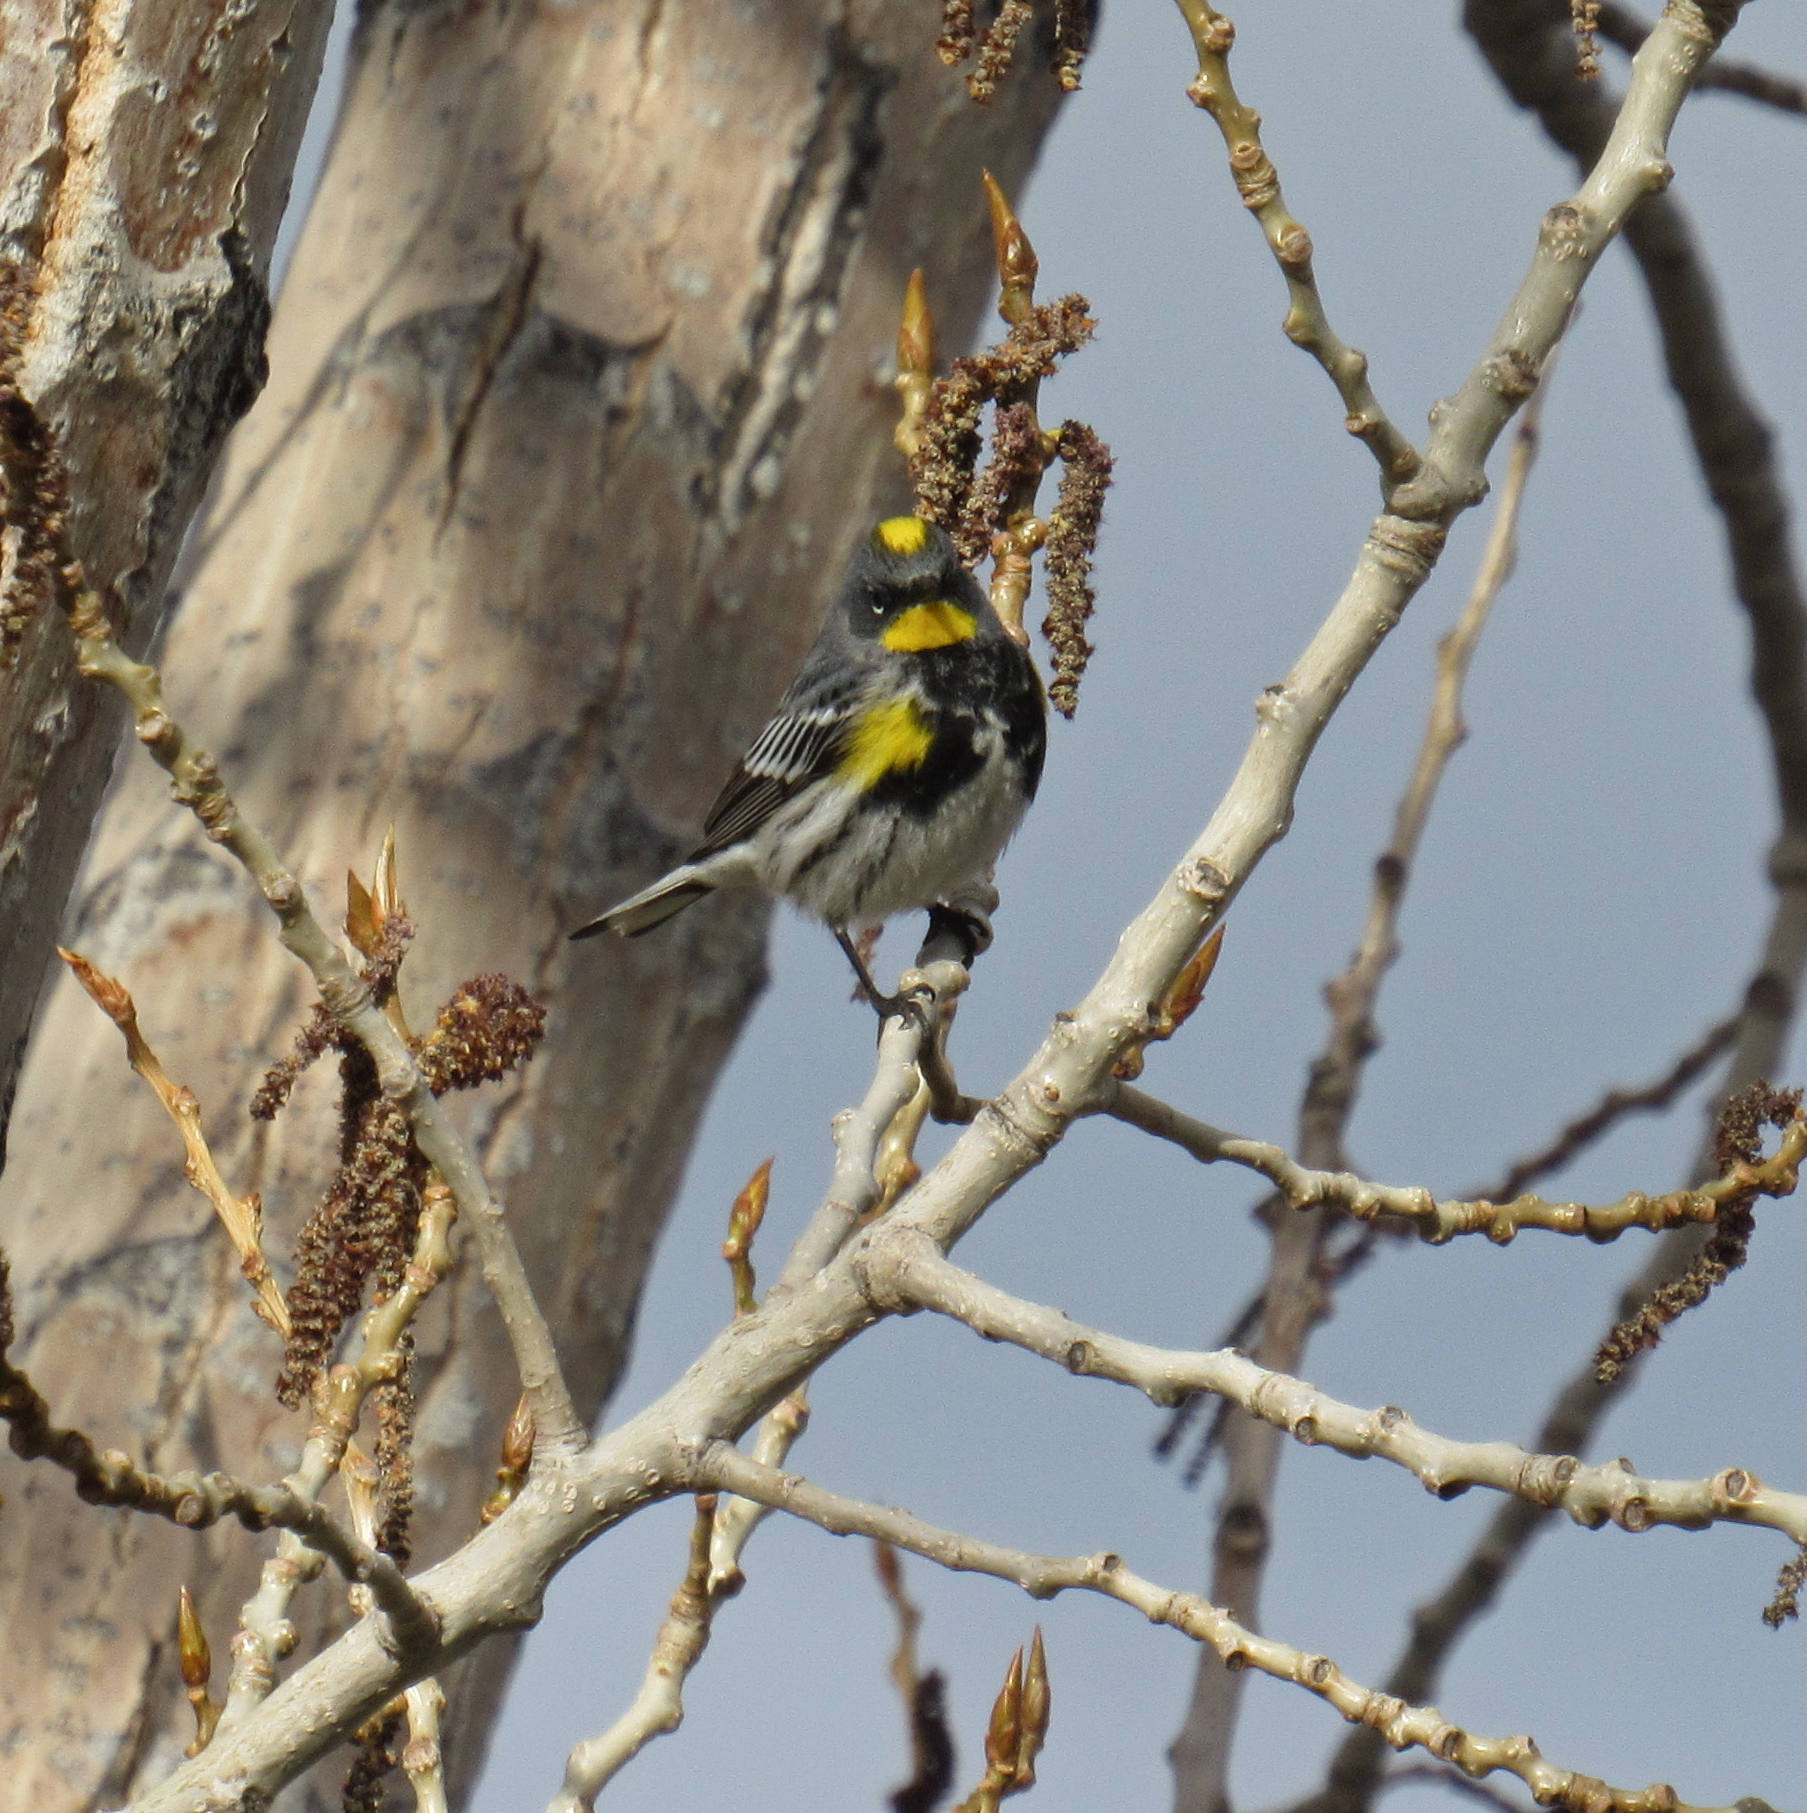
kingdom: Animalia
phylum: Chordata
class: Aves
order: Passeriformes
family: Parulidae
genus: Setophaga
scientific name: Setophaga auduboni
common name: Audubon's warbler
